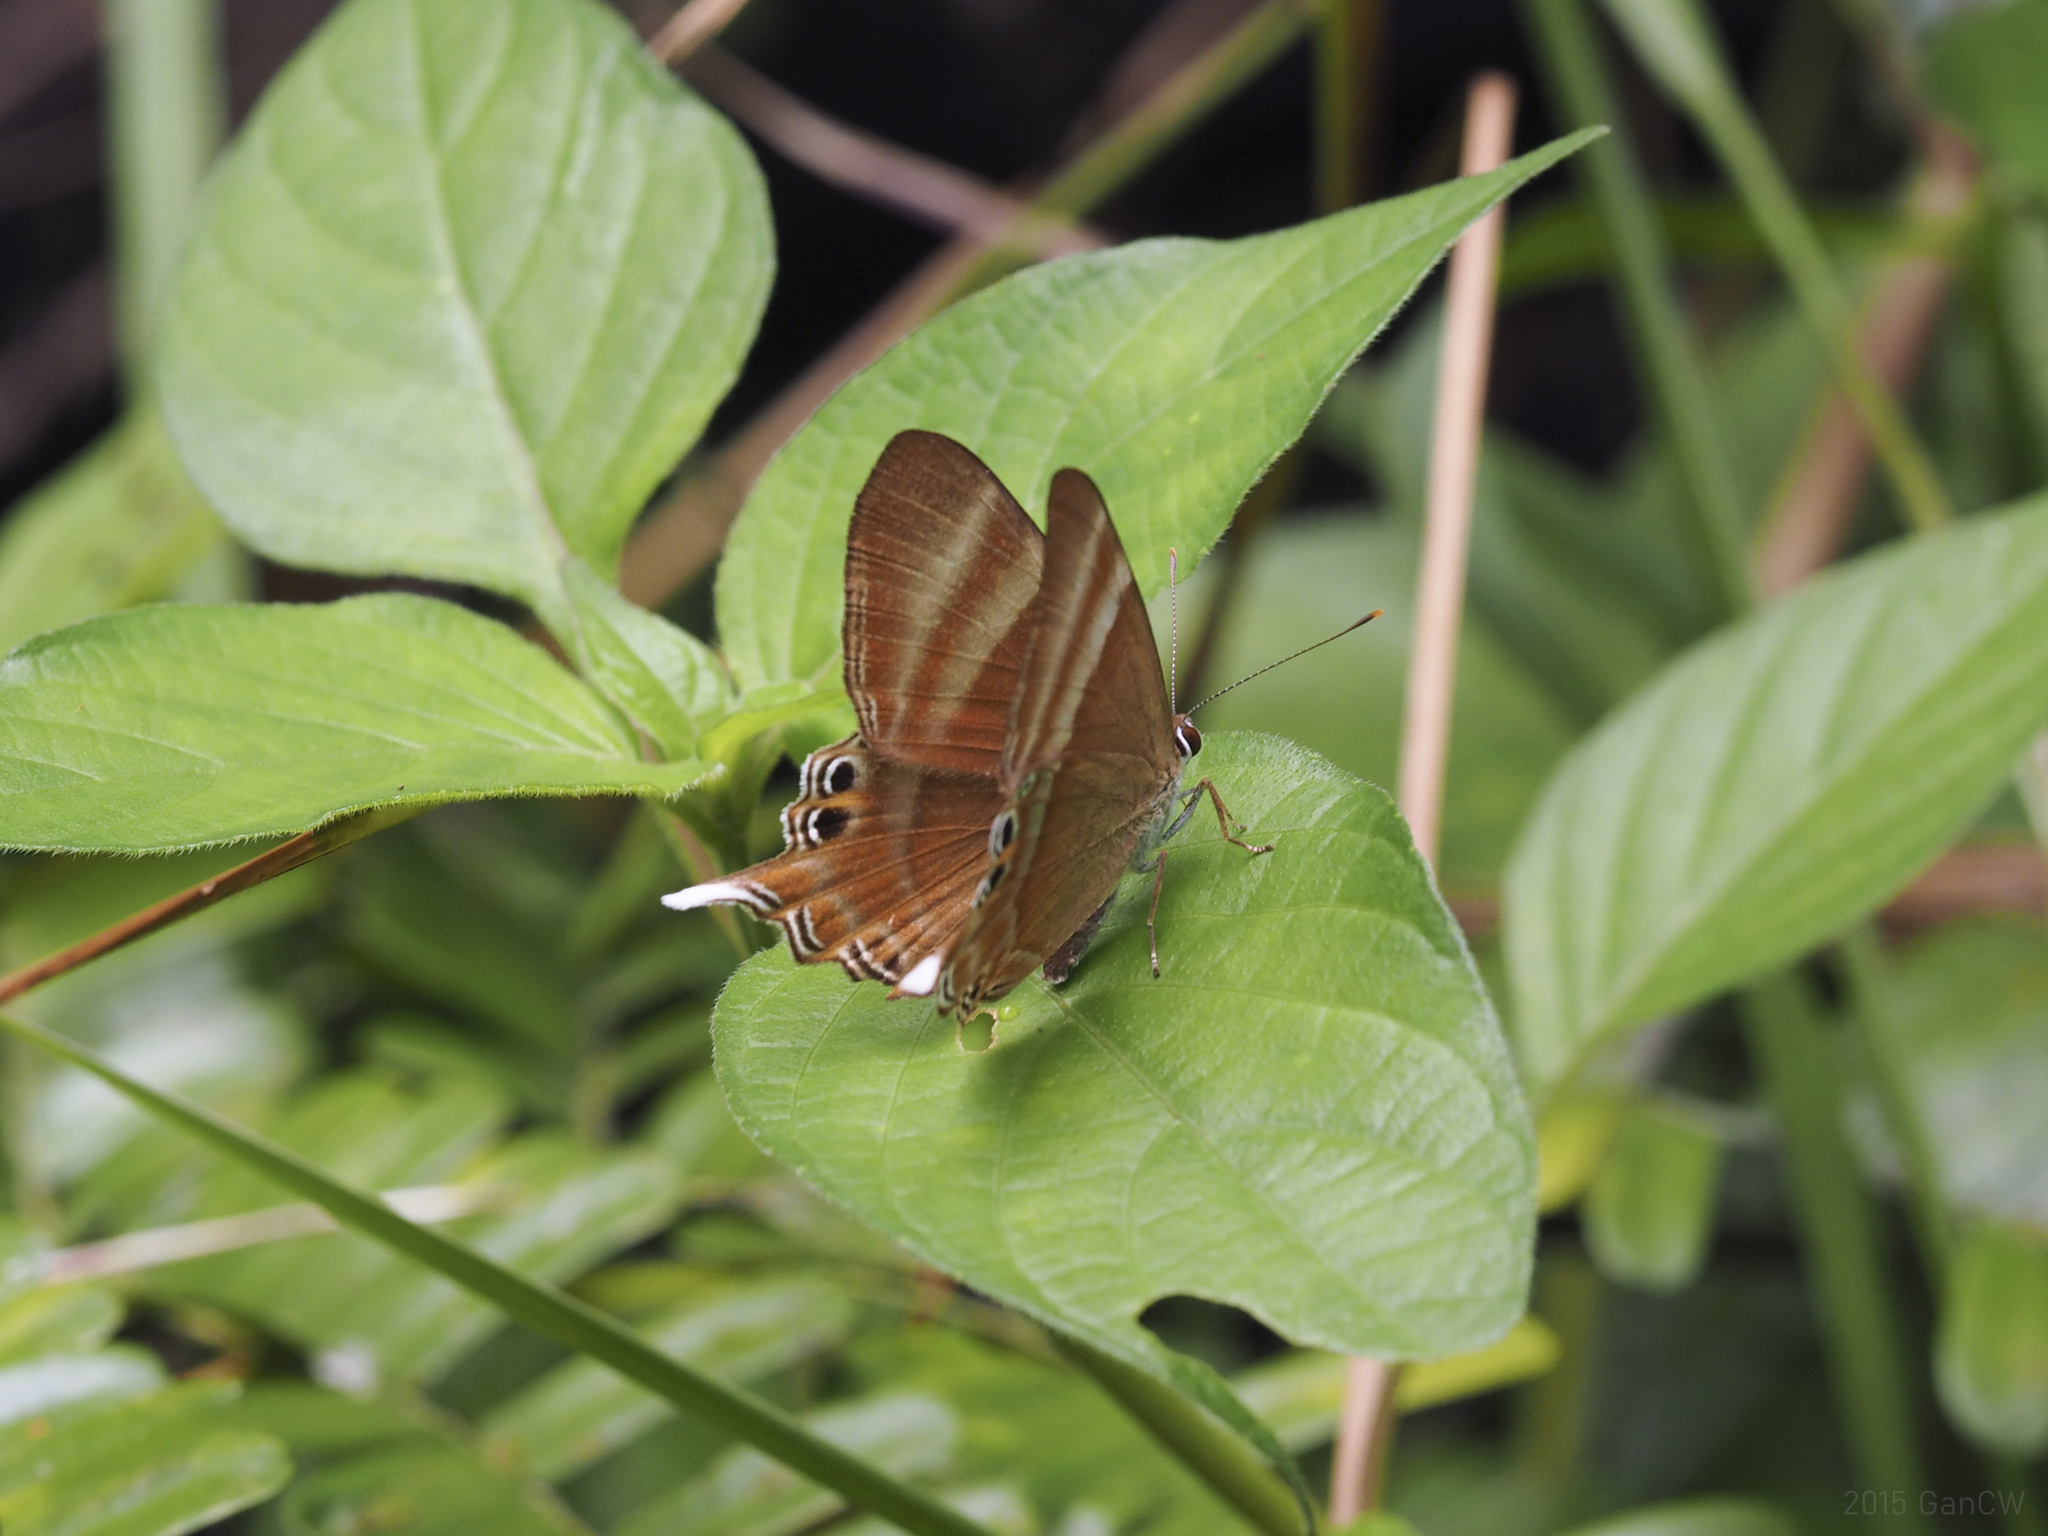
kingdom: Animalia
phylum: Arthropoda
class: Insecta
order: Lepidoptera
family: Lycaenidae
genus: Abisara
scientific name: Abisara savitri
